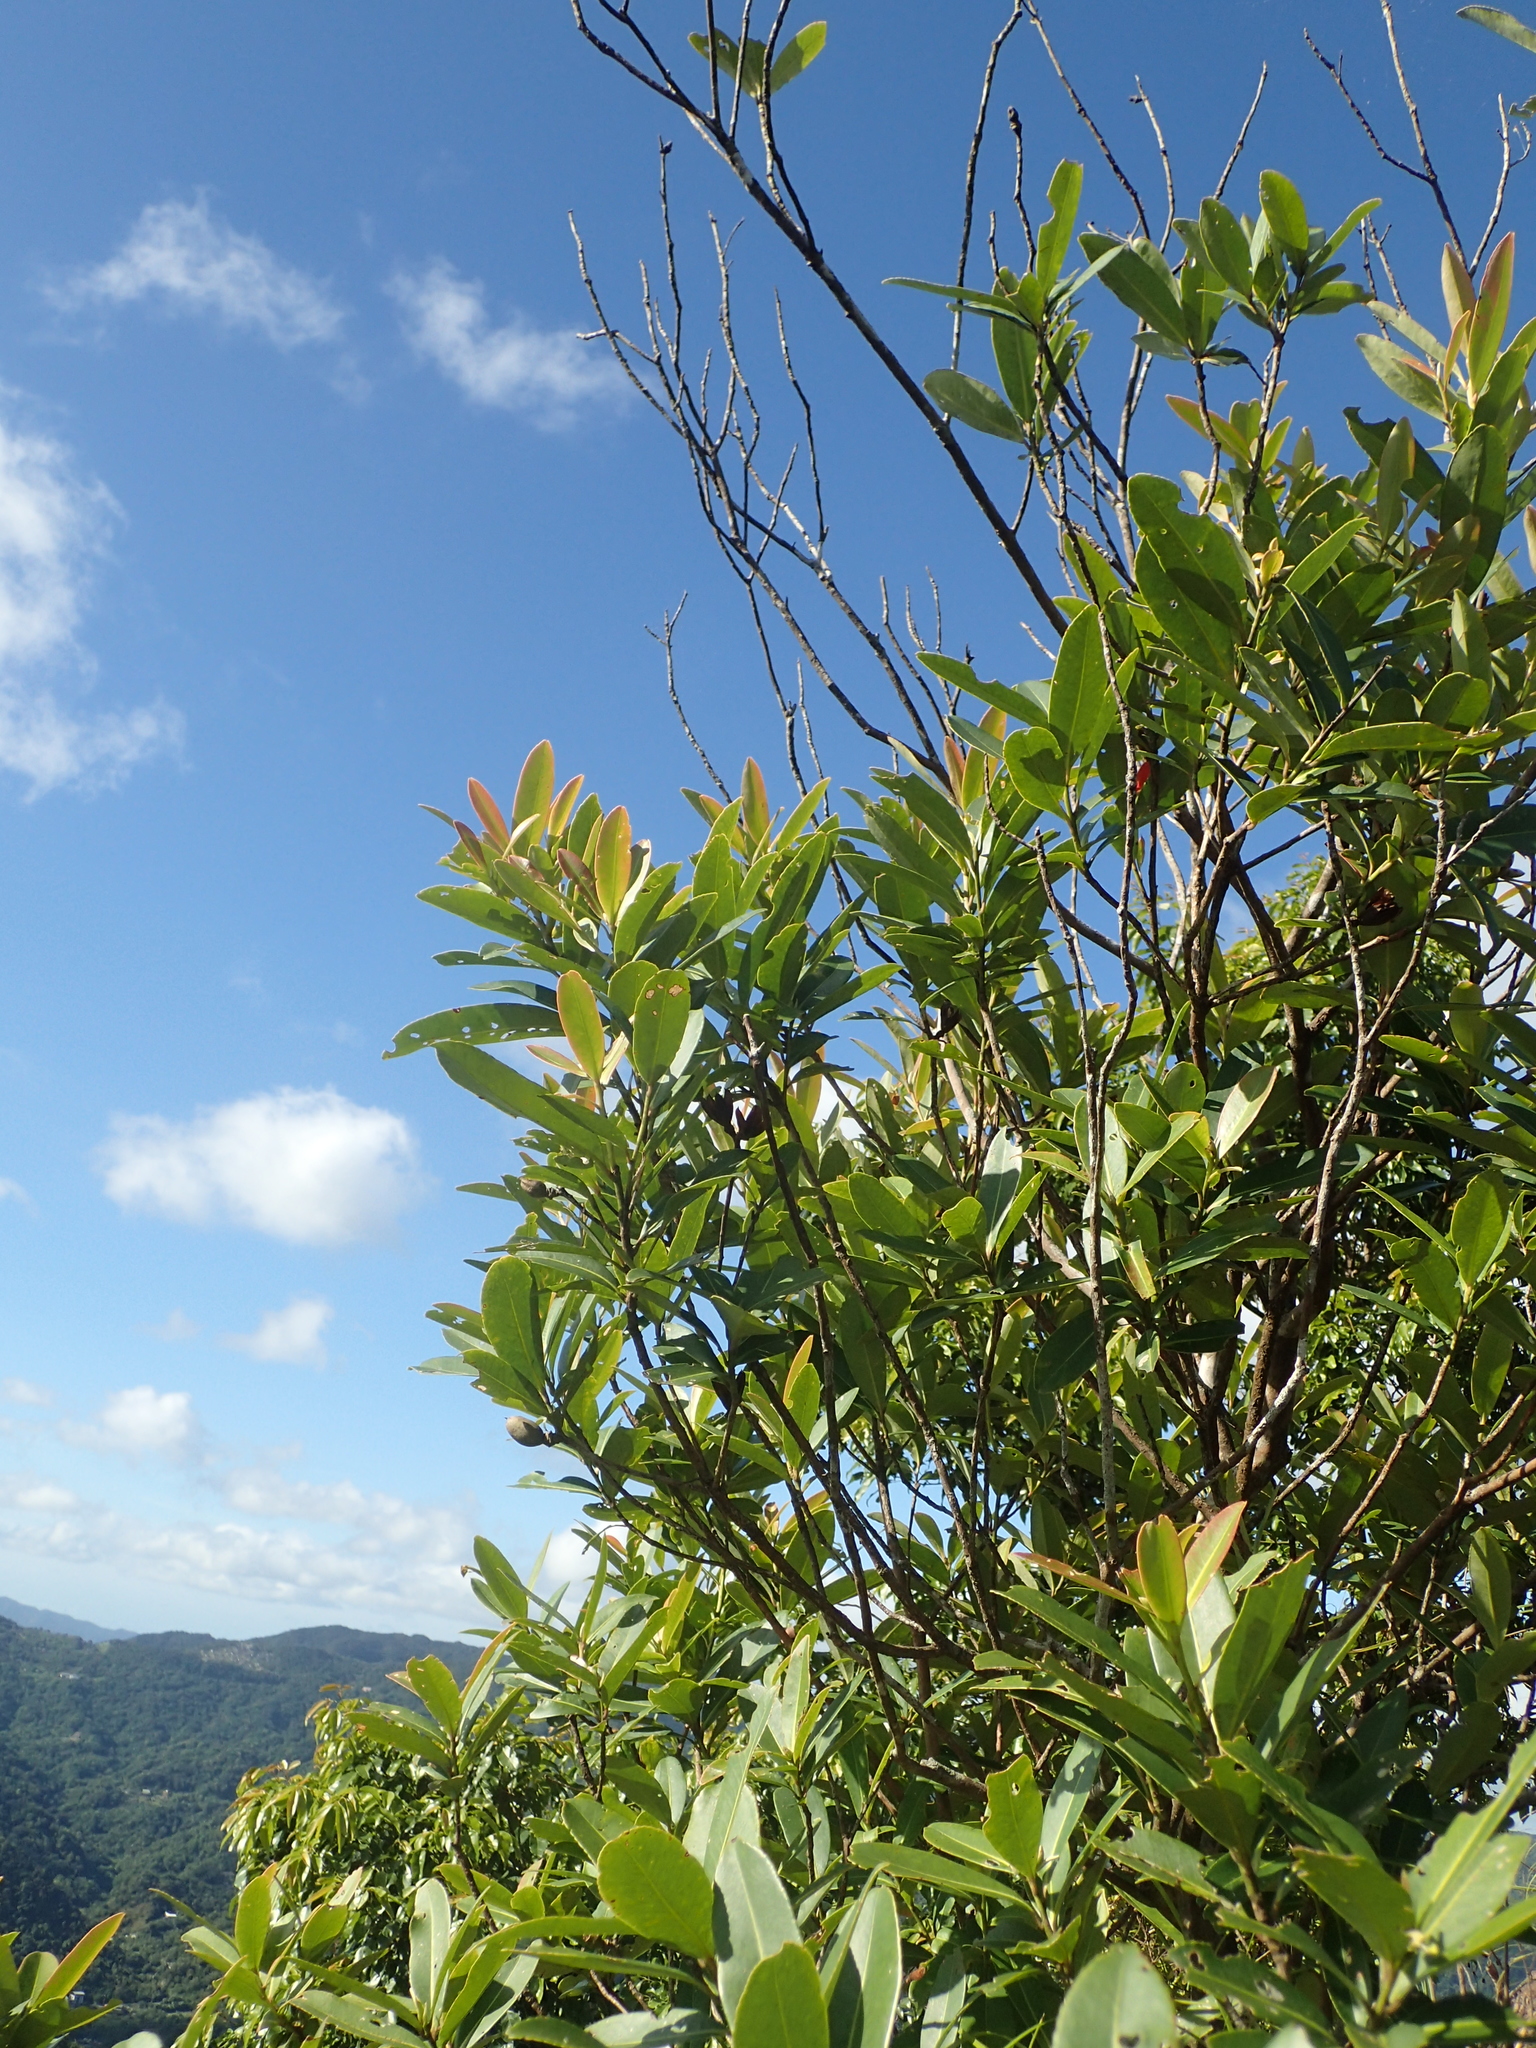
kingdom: Plantae
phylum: Tracheophyta
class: Magnoliopsida
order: Ericales
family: Theaceae
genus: Polyspora
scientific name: Polyspora axillaris
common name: Fried egg tree
